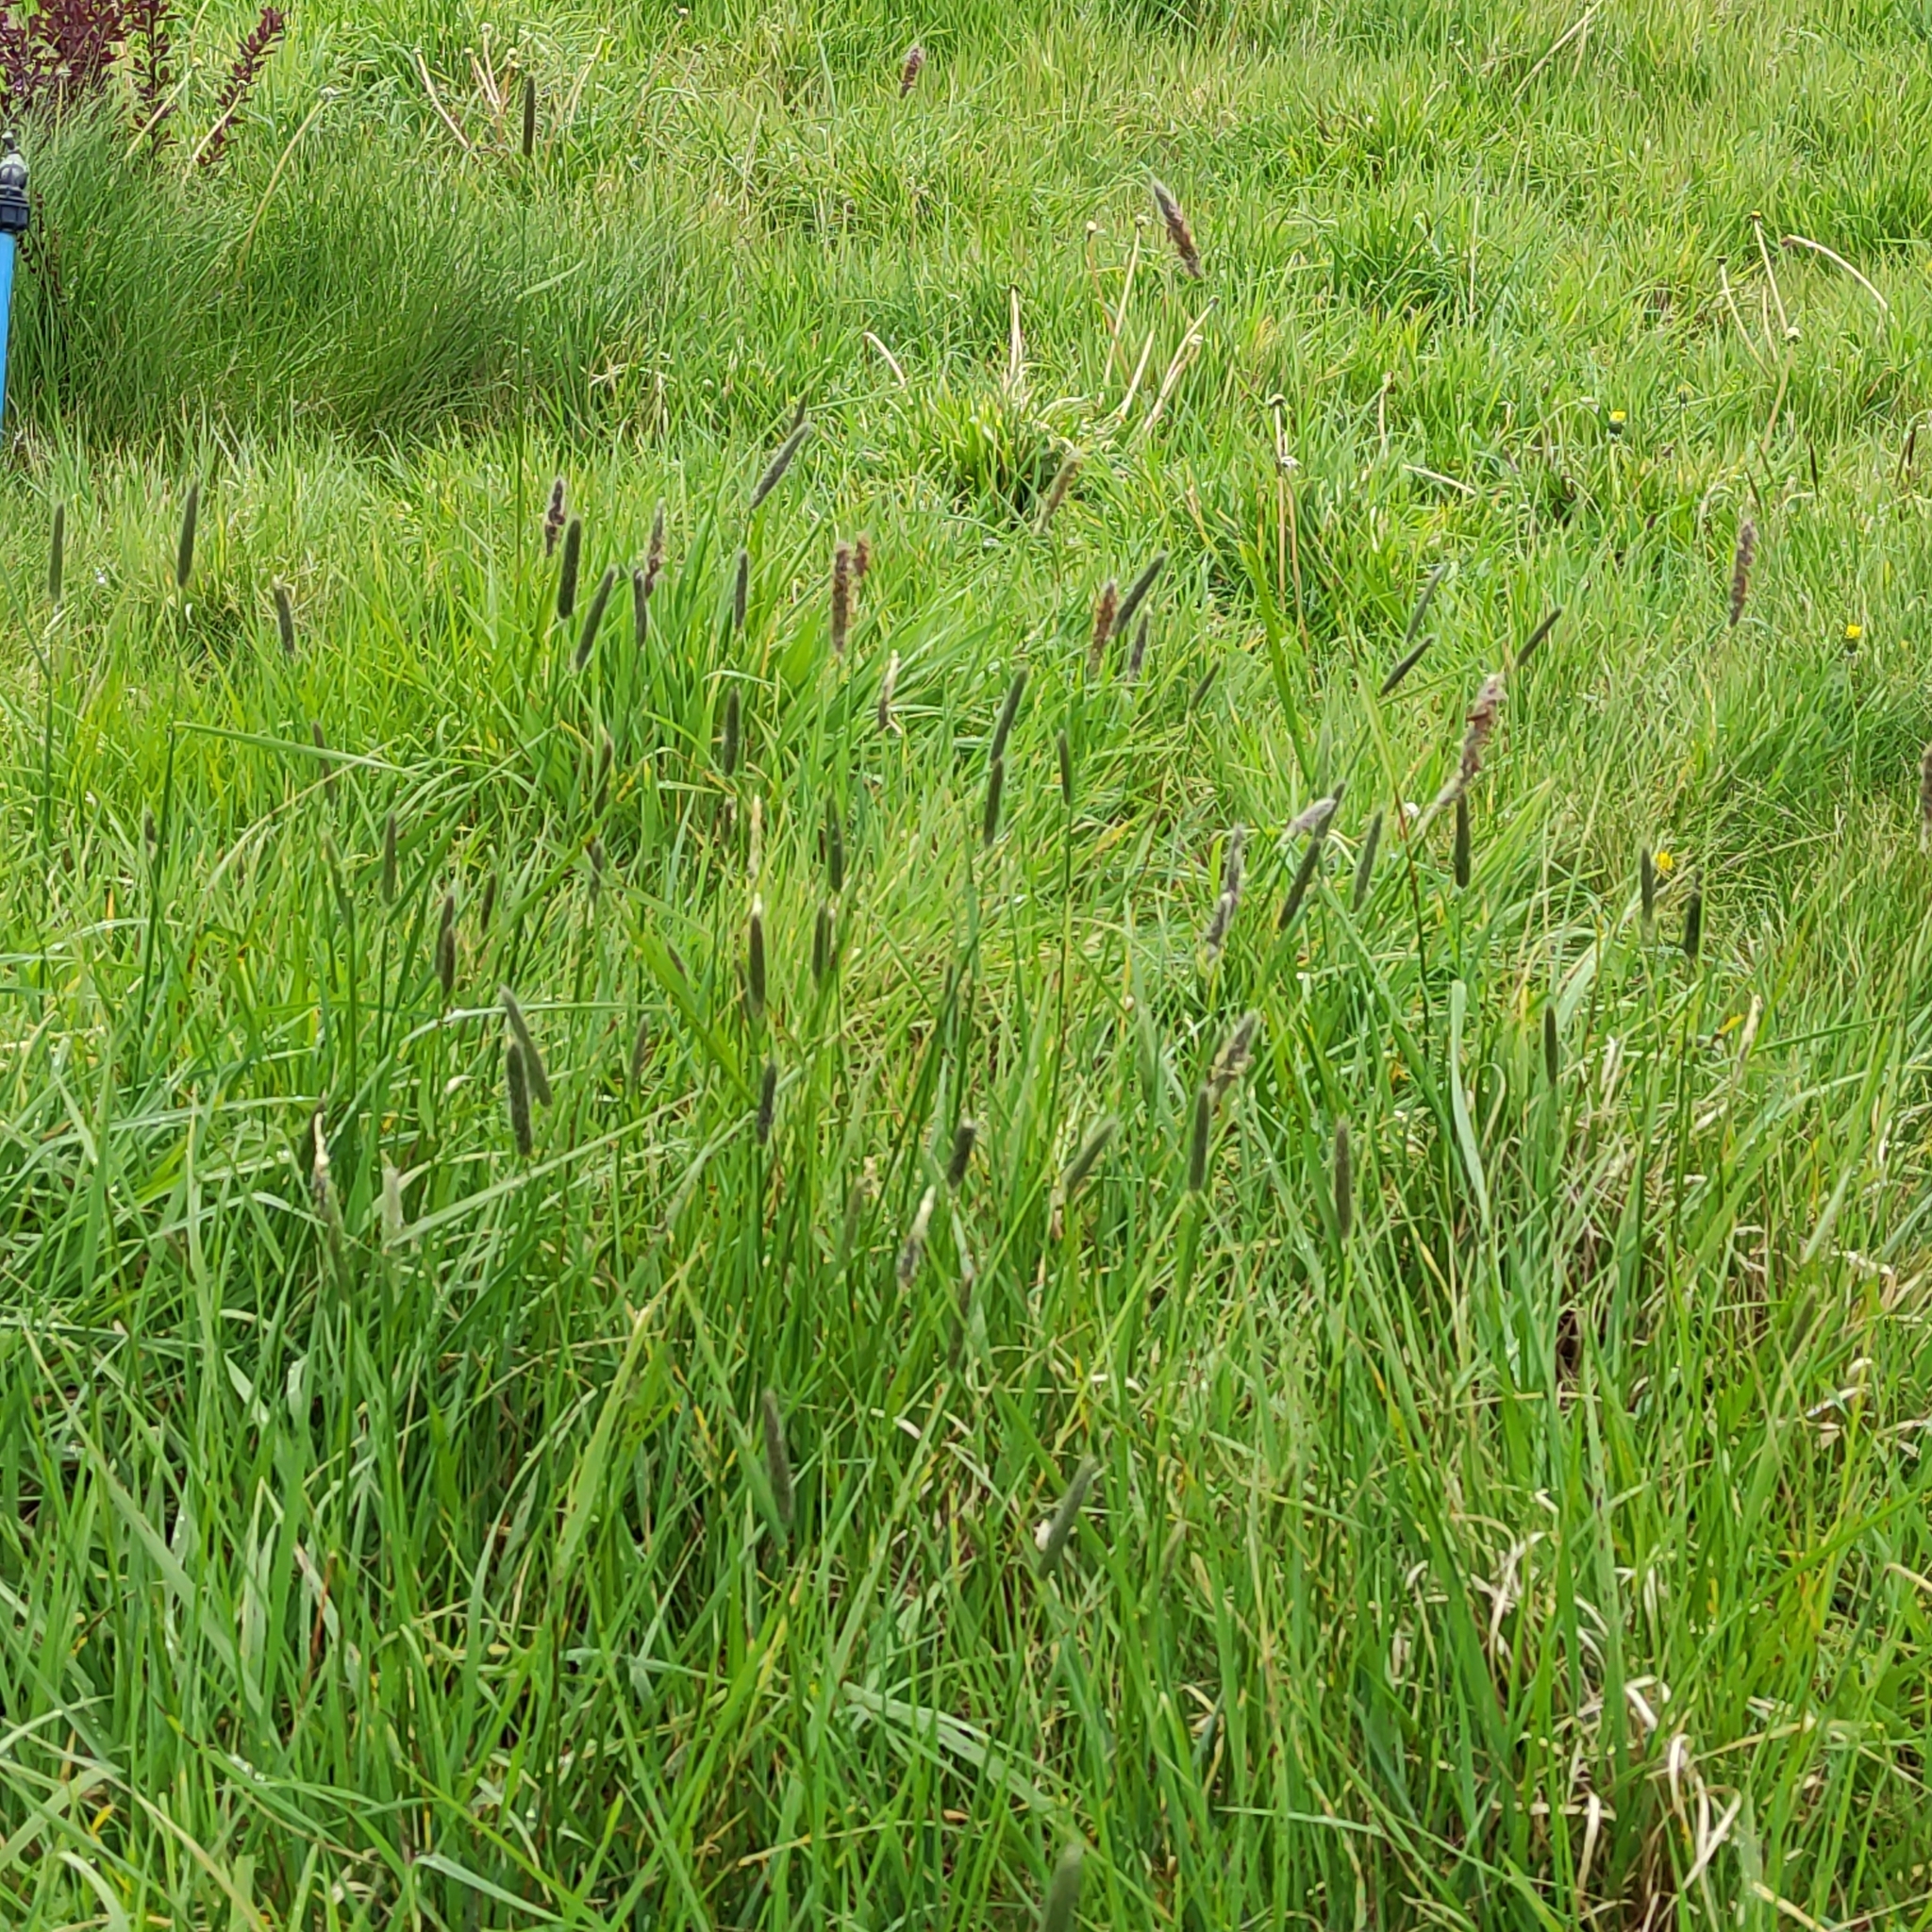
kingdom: Plantae
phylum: Tracheophyta
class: Liliopsida
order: Poales
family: Poaceae
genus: Alopecurus
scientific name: Alopecurus pratensis
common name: Meadow foxtail
